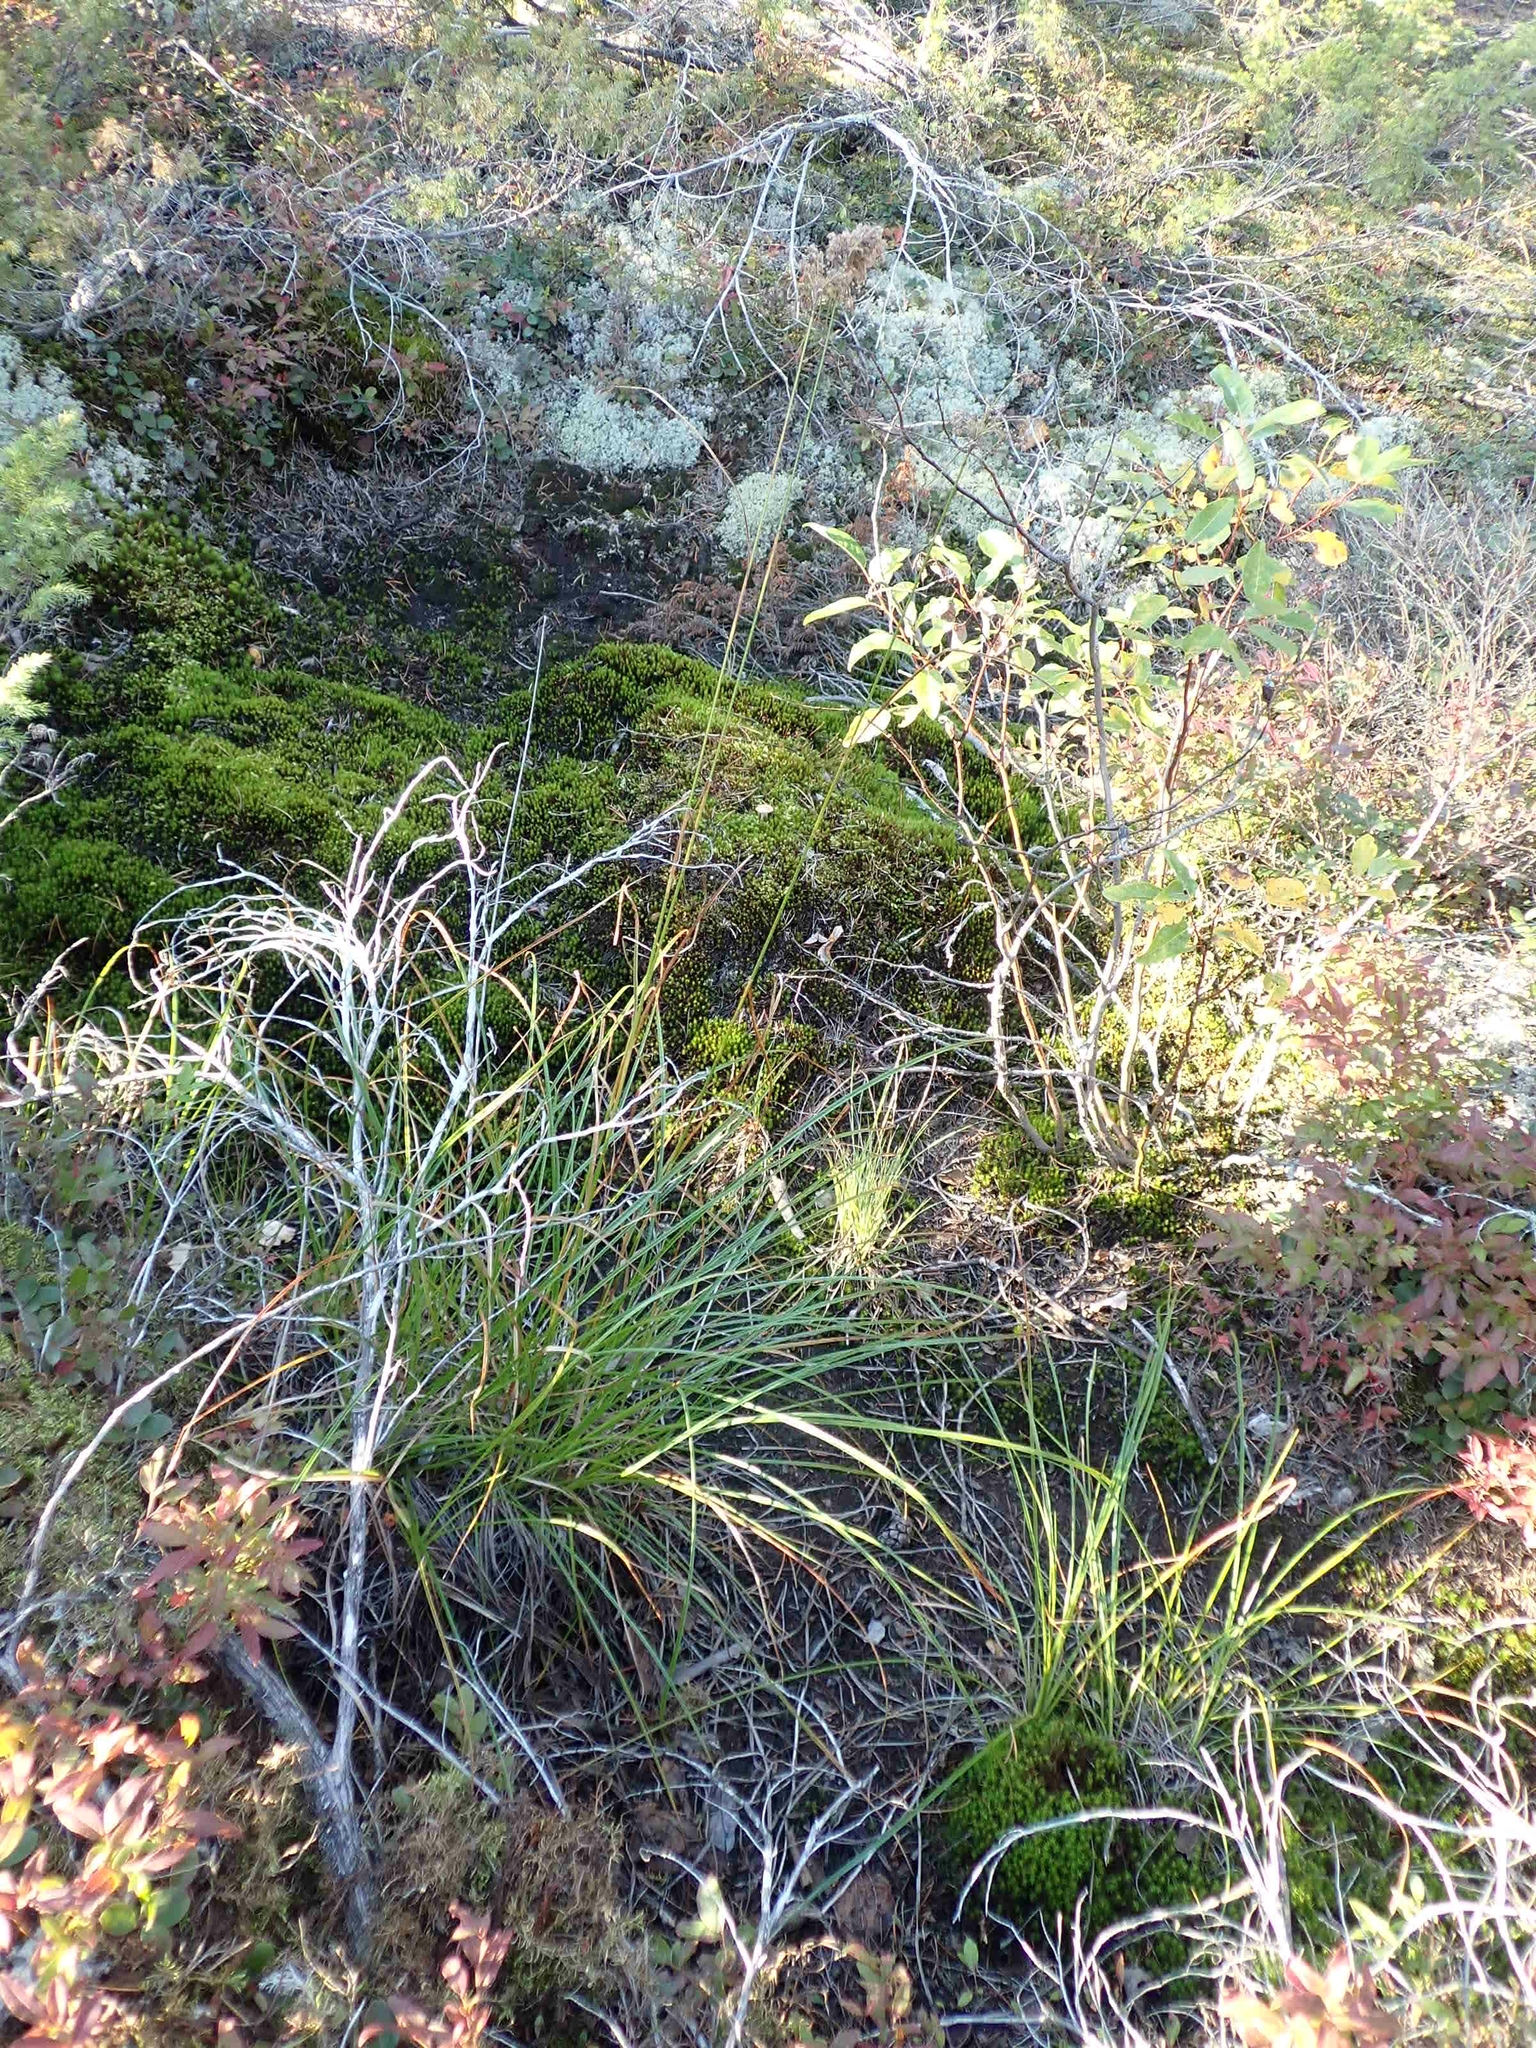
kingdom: Plantae
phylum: Tracheophyta
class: Liliopsida
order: Poales
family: Cyperaceae
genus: Scirpus
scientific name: Scirpus cyperinus
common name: Black-sheathed bulrush
